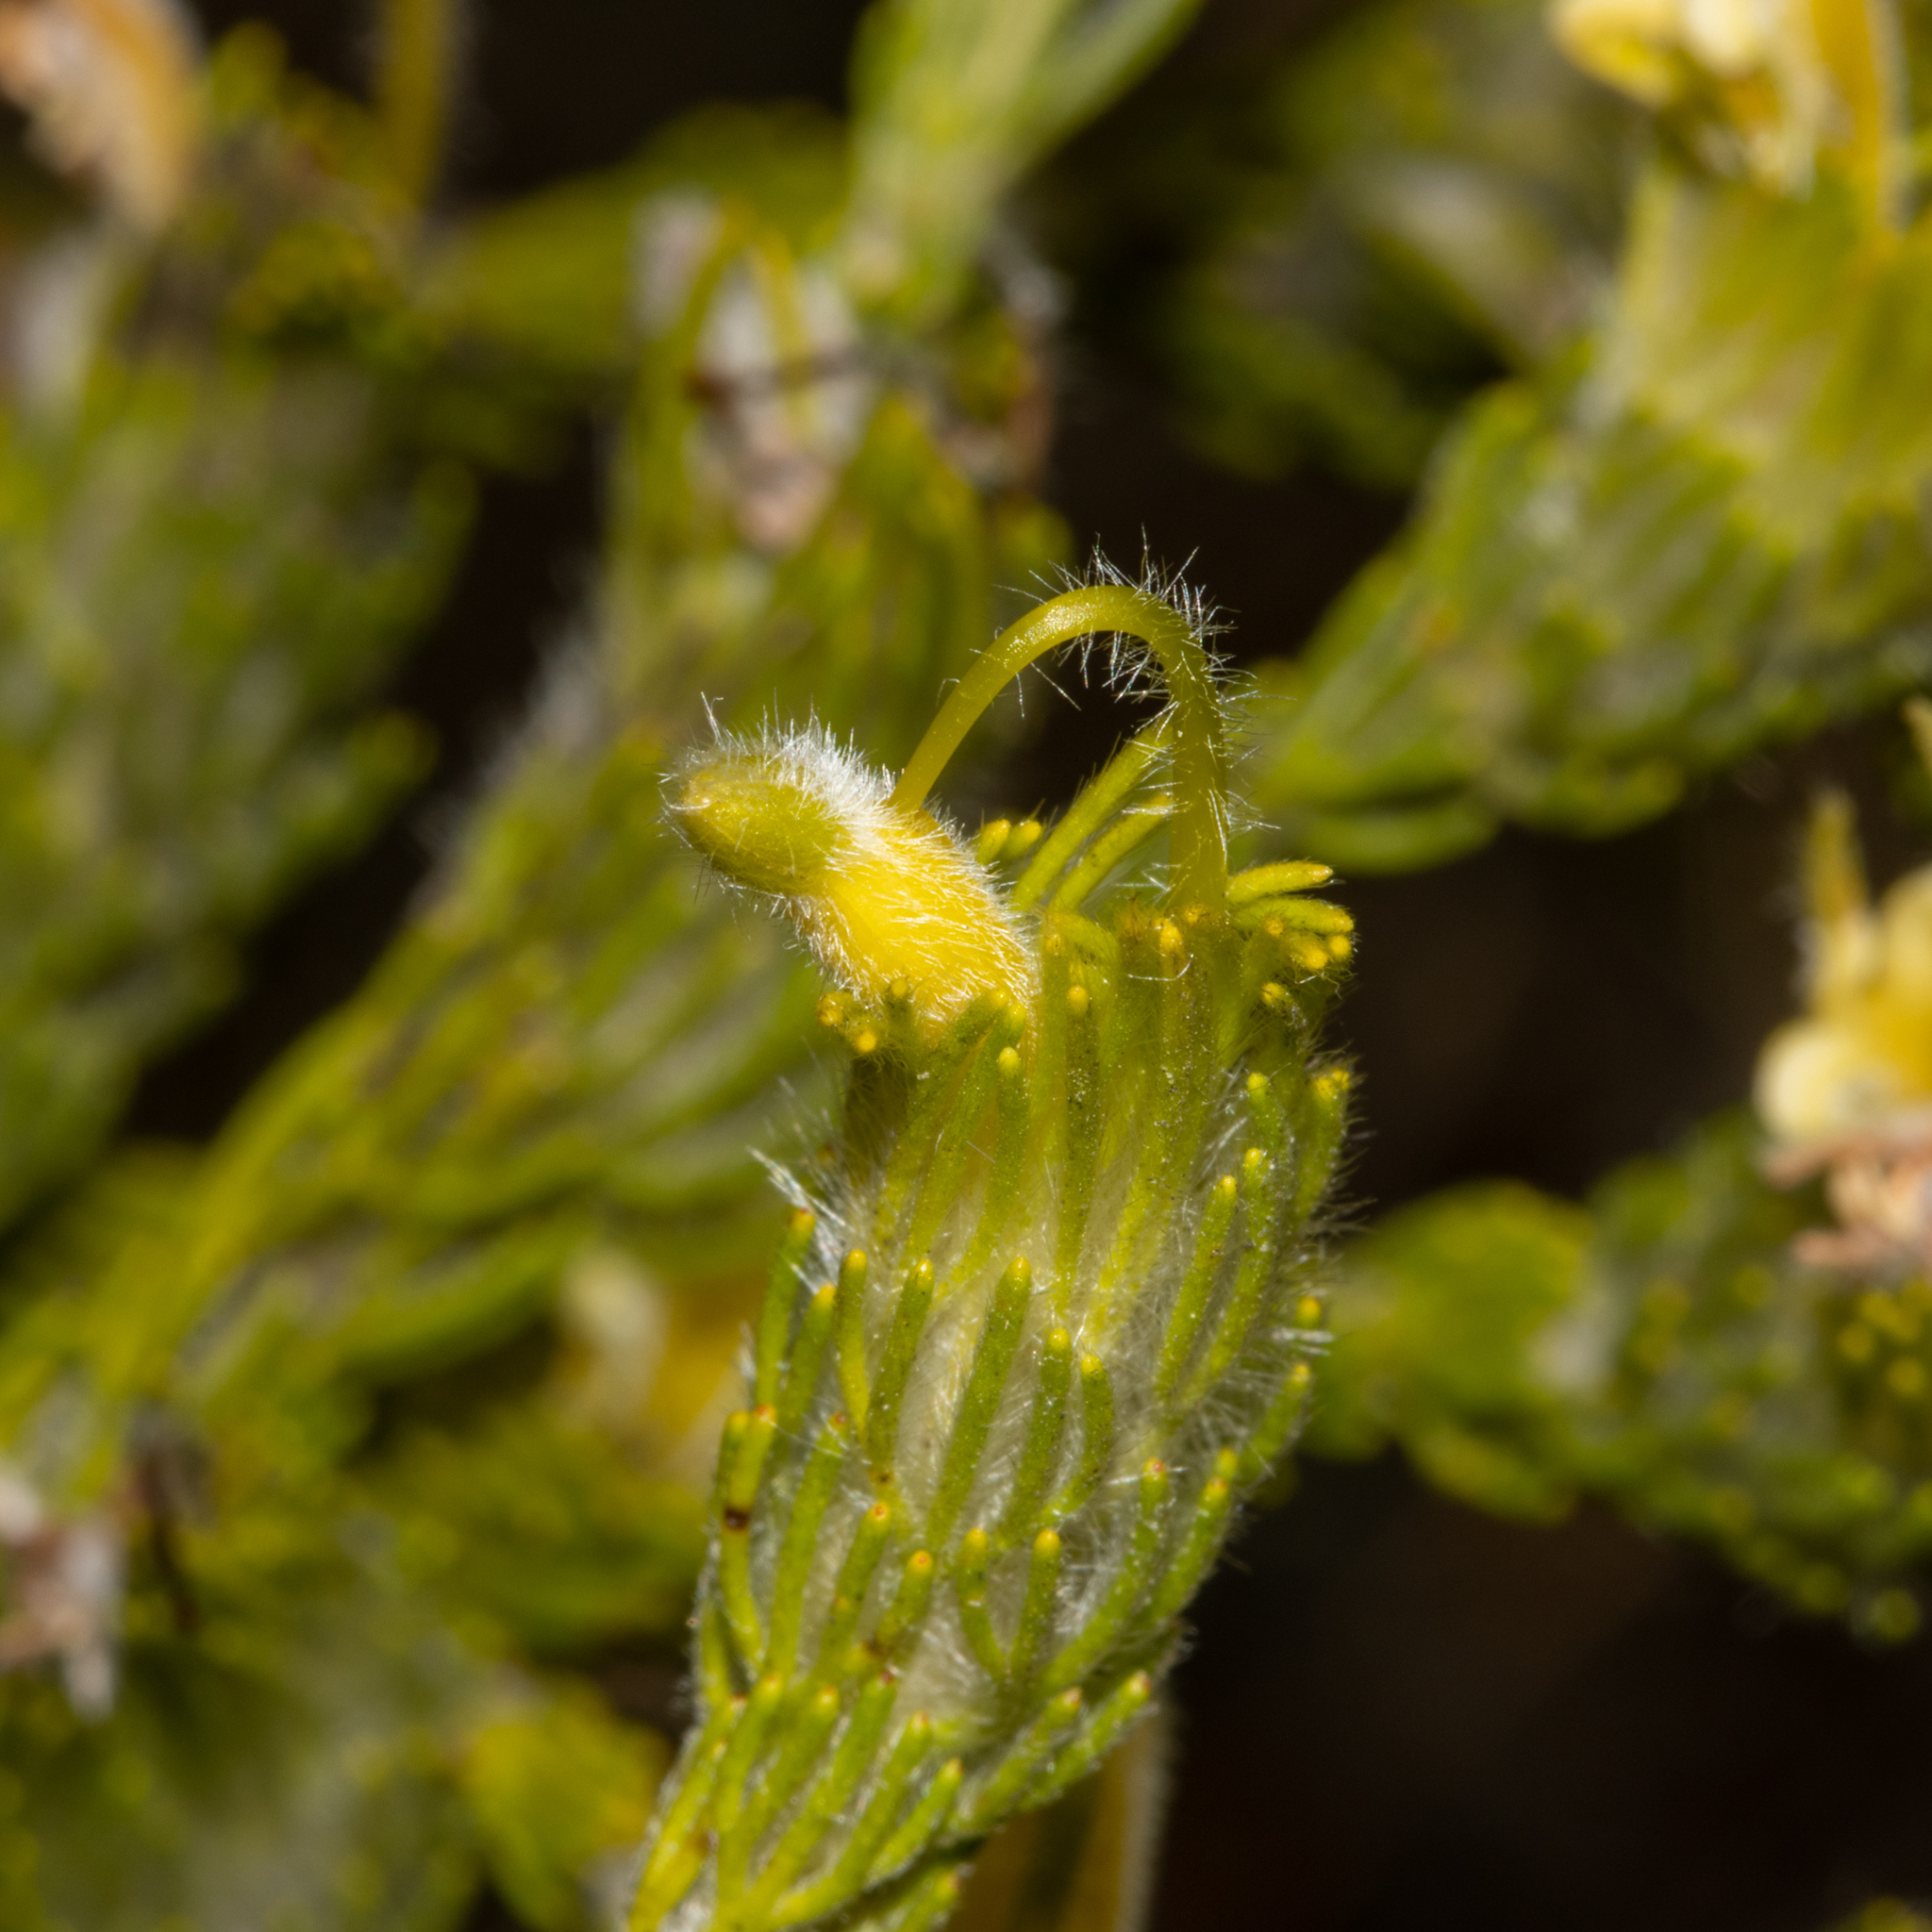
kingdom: Plantae
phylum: Tracheophyta
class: Magnoliopsida
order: Proteales
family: Proteaceae
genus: Adenanthos
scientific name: Adenanthos terminalis
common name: Yellow gland-flower
